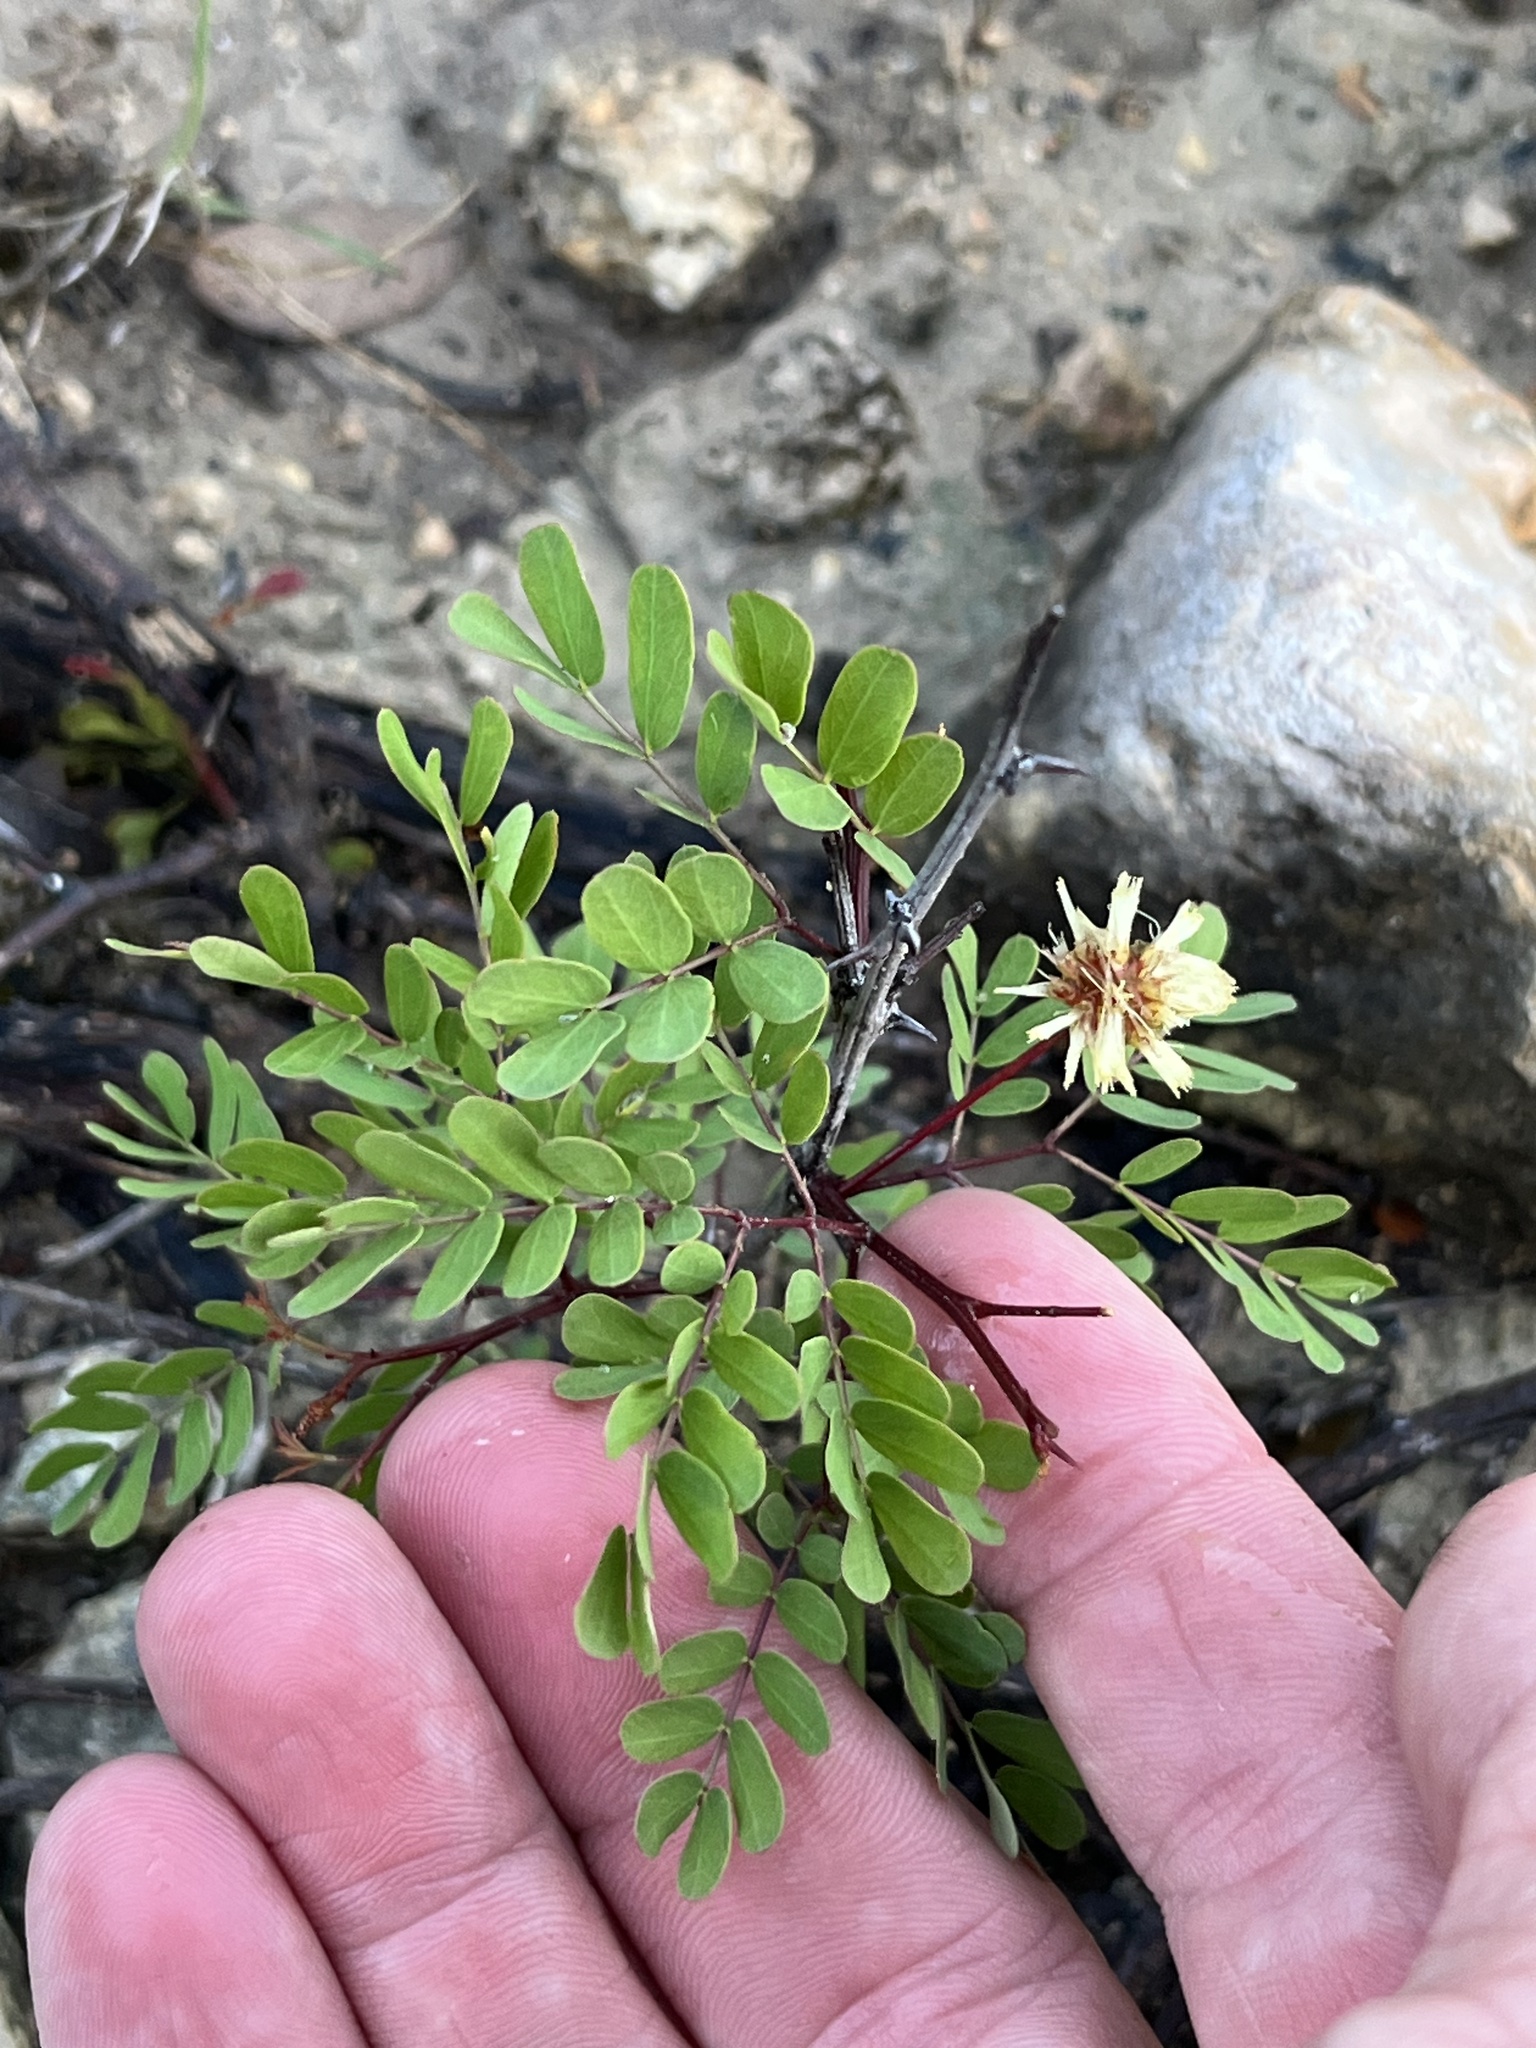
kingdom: Plantae
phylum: Tracheophyta
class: Magnoliopsida
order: Fabales
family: Fabaceae
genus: Senegalia
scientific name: Senegalia roemeriana
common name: Roemer's acacia
